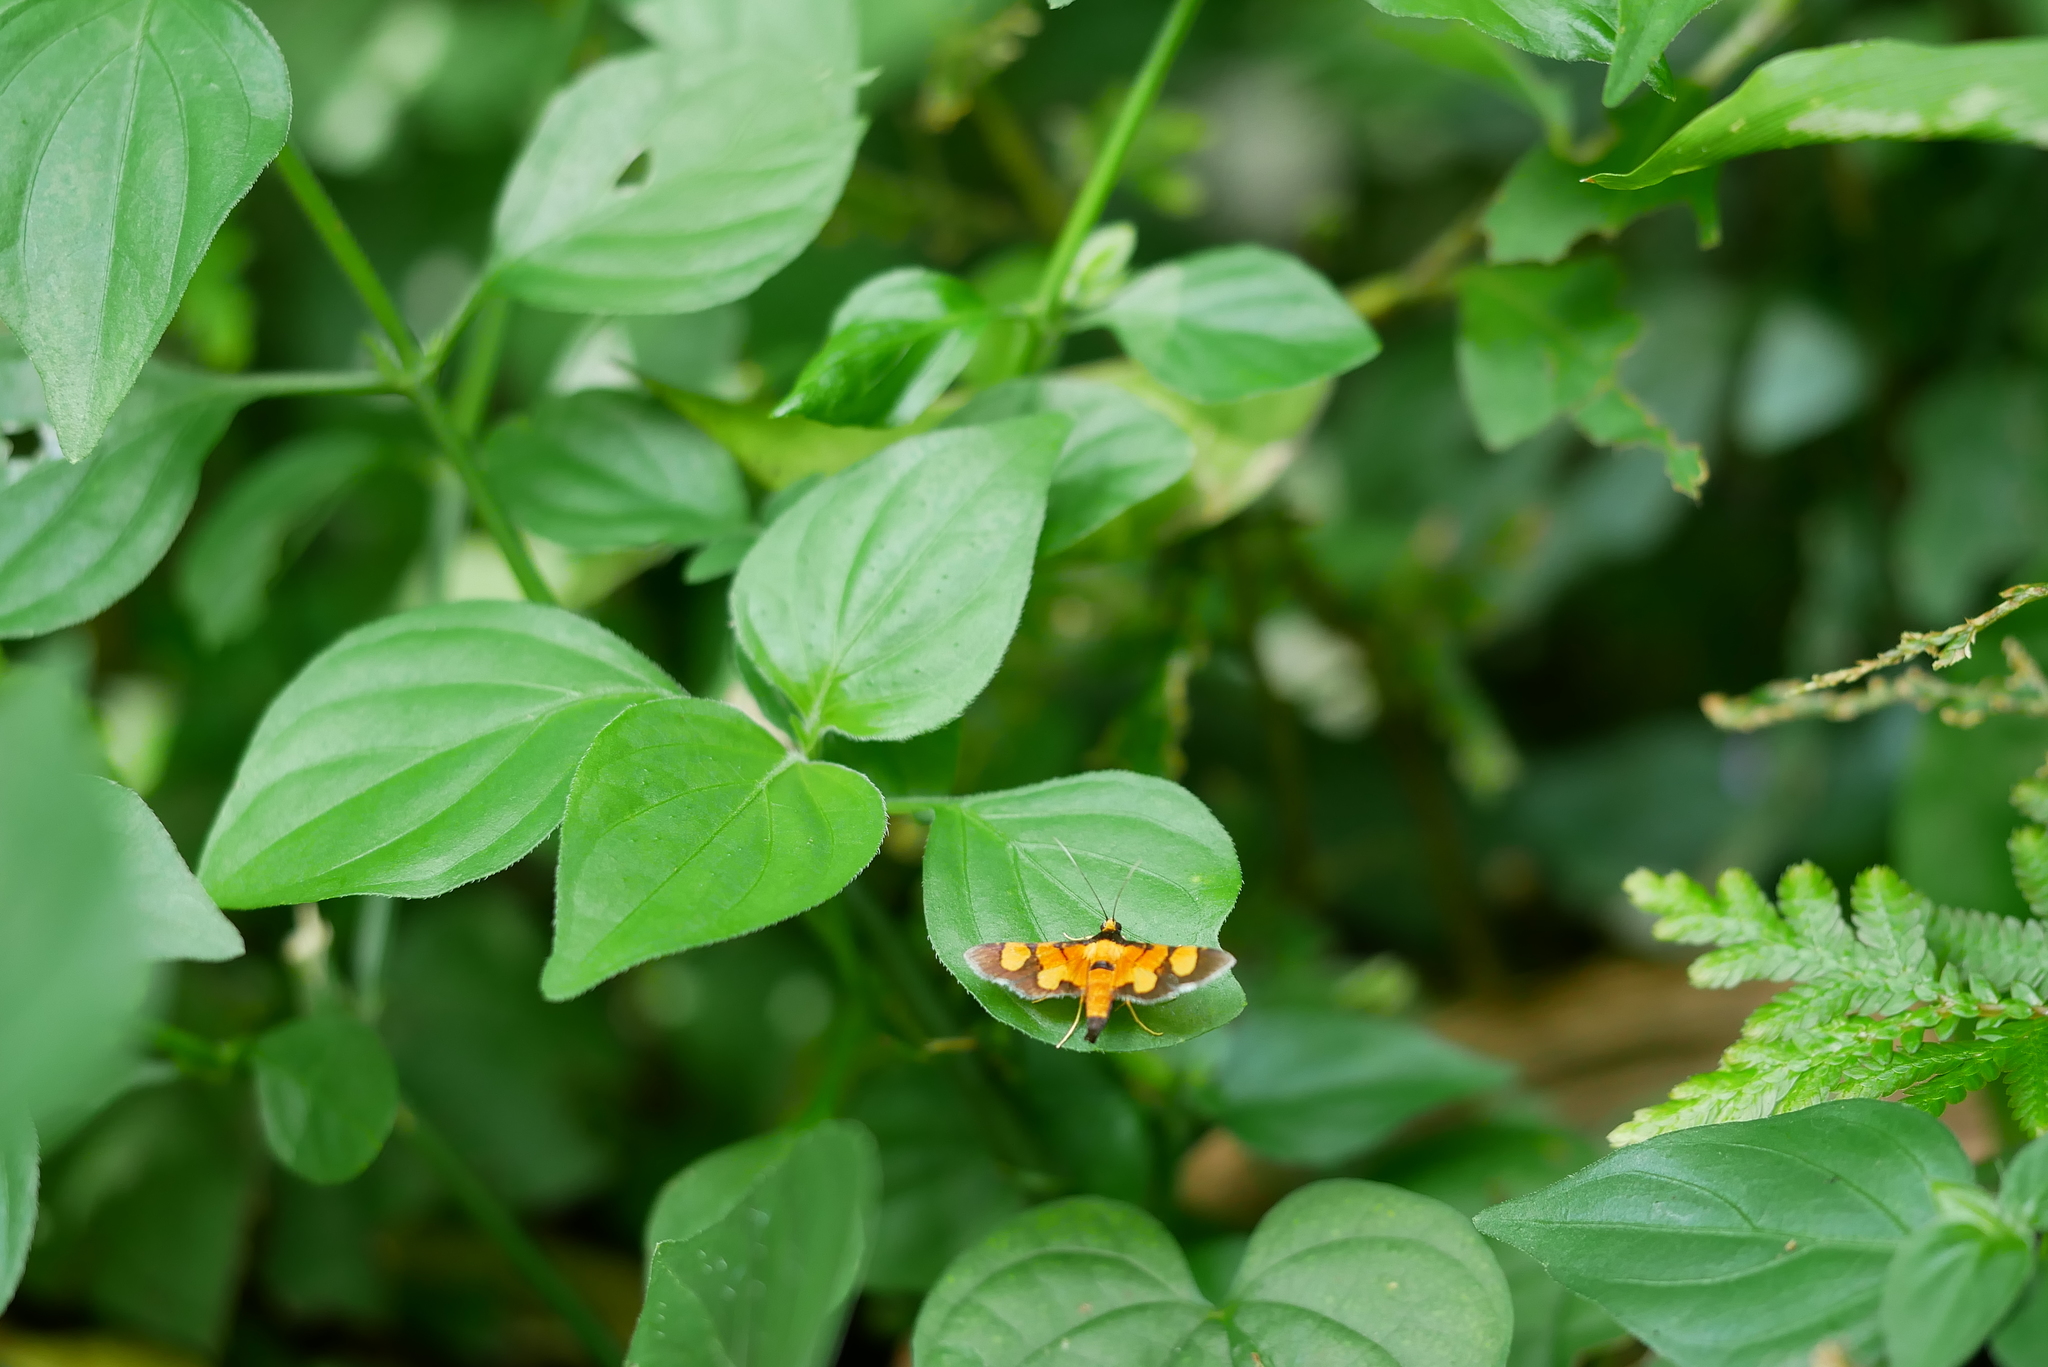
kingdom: Animalia
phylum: Arthropoda
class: Insecta
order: Lepidoptera
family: Crambidae
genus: Aethaloessa
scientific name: Aethaloessa calidalis
